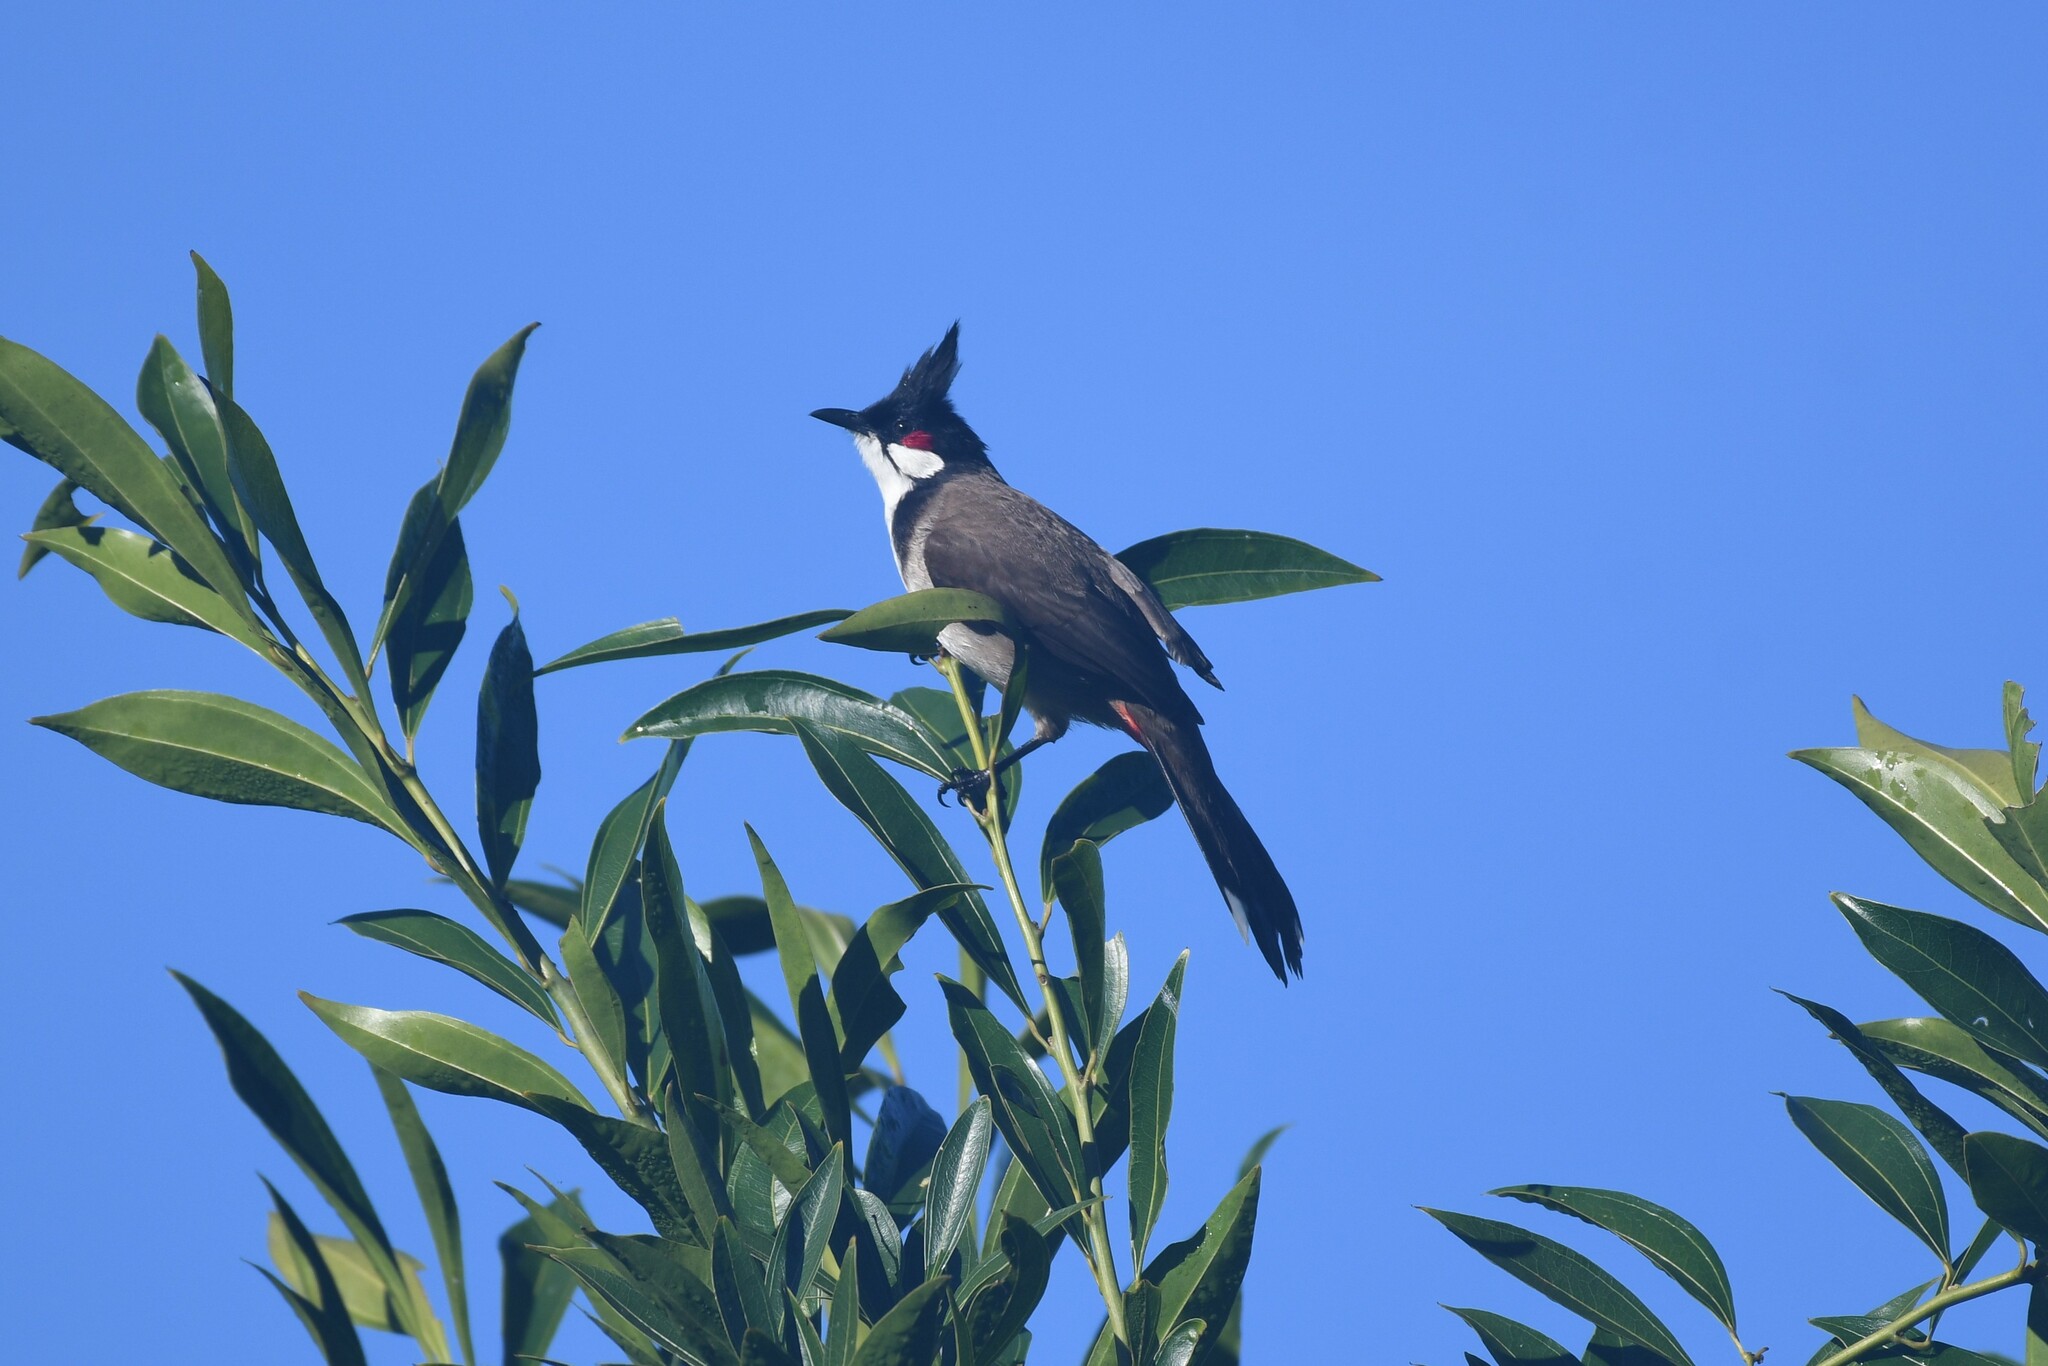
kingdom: Animalia
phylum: Chordata
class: Aves
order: Passeriformes
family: Pycnonotidae
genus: Pycnonotus
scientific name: Pycnonotus jocosus
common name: Red-whiskered bulbul
